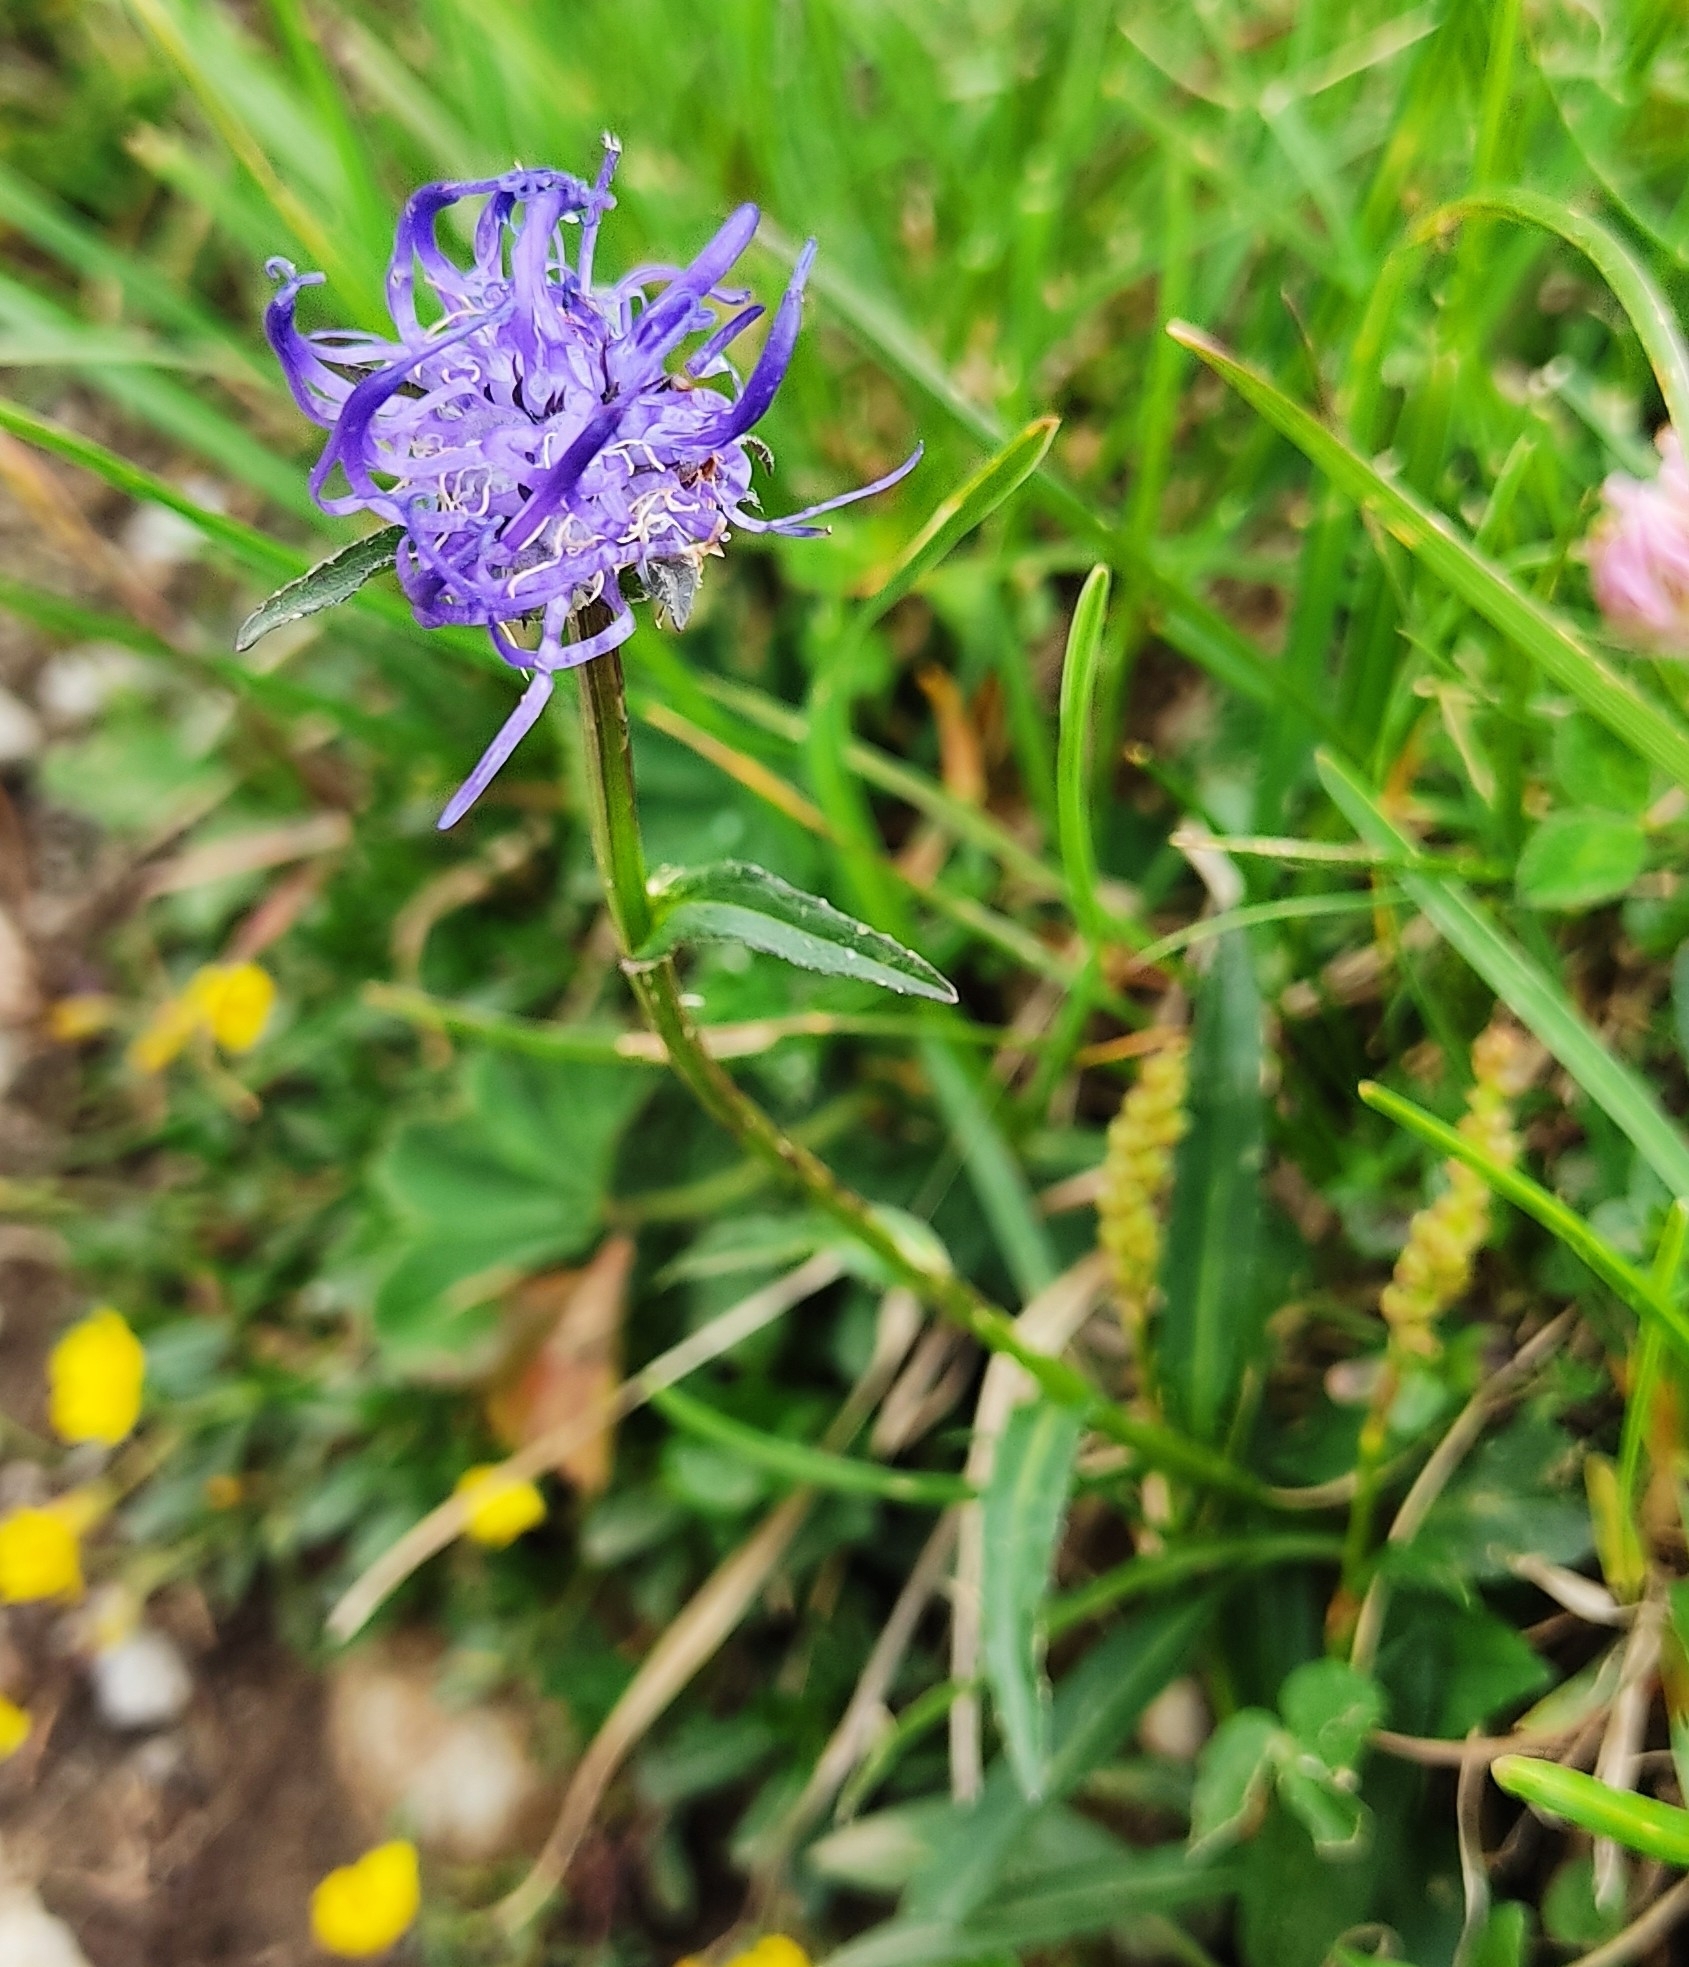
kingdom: Plantae
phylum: Tracheophyta
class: Magnoliopsida
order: Asterales
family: Campanulaceae
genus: Phyteuma
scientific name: Phyteuma orbiculare
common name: Round-headed rampion
